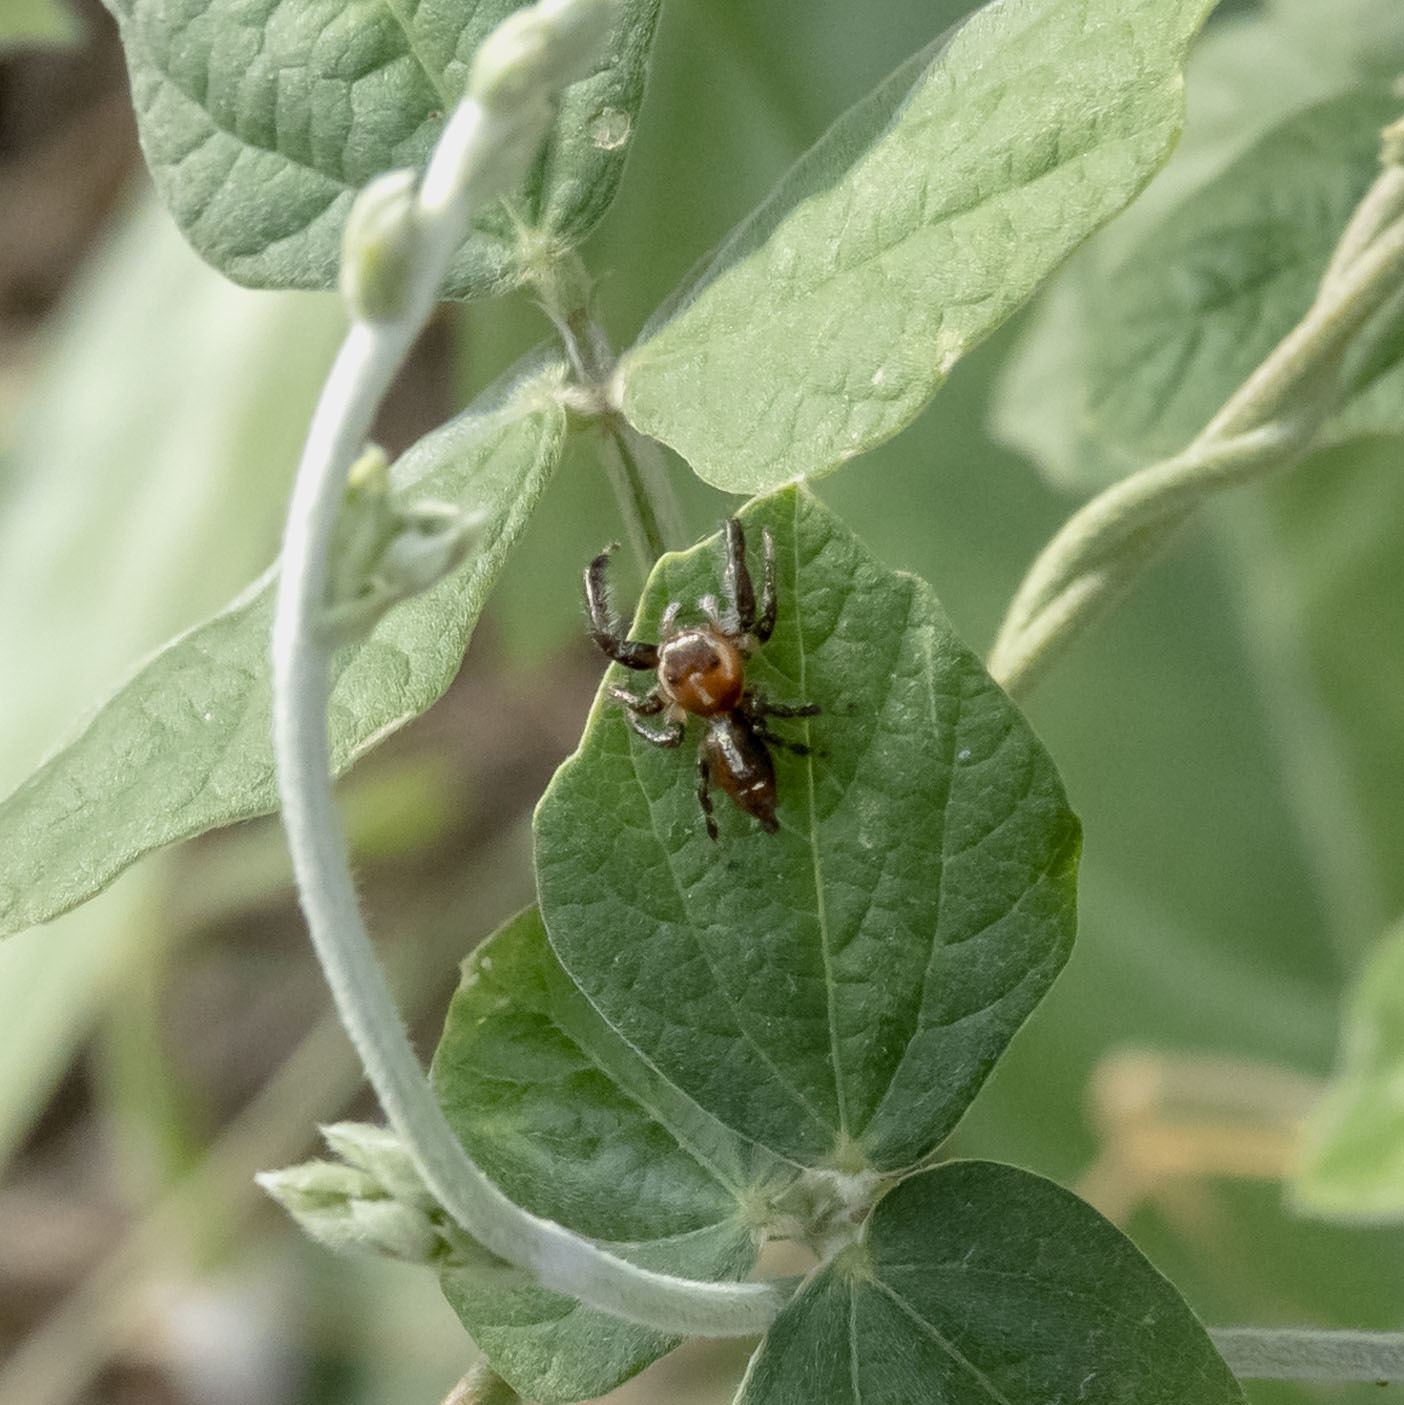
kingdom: Animalia
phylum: Arthropoda
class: Arachnida
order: Araneae
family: Salticidae
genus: Thyene
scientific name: Thyene imperialis
